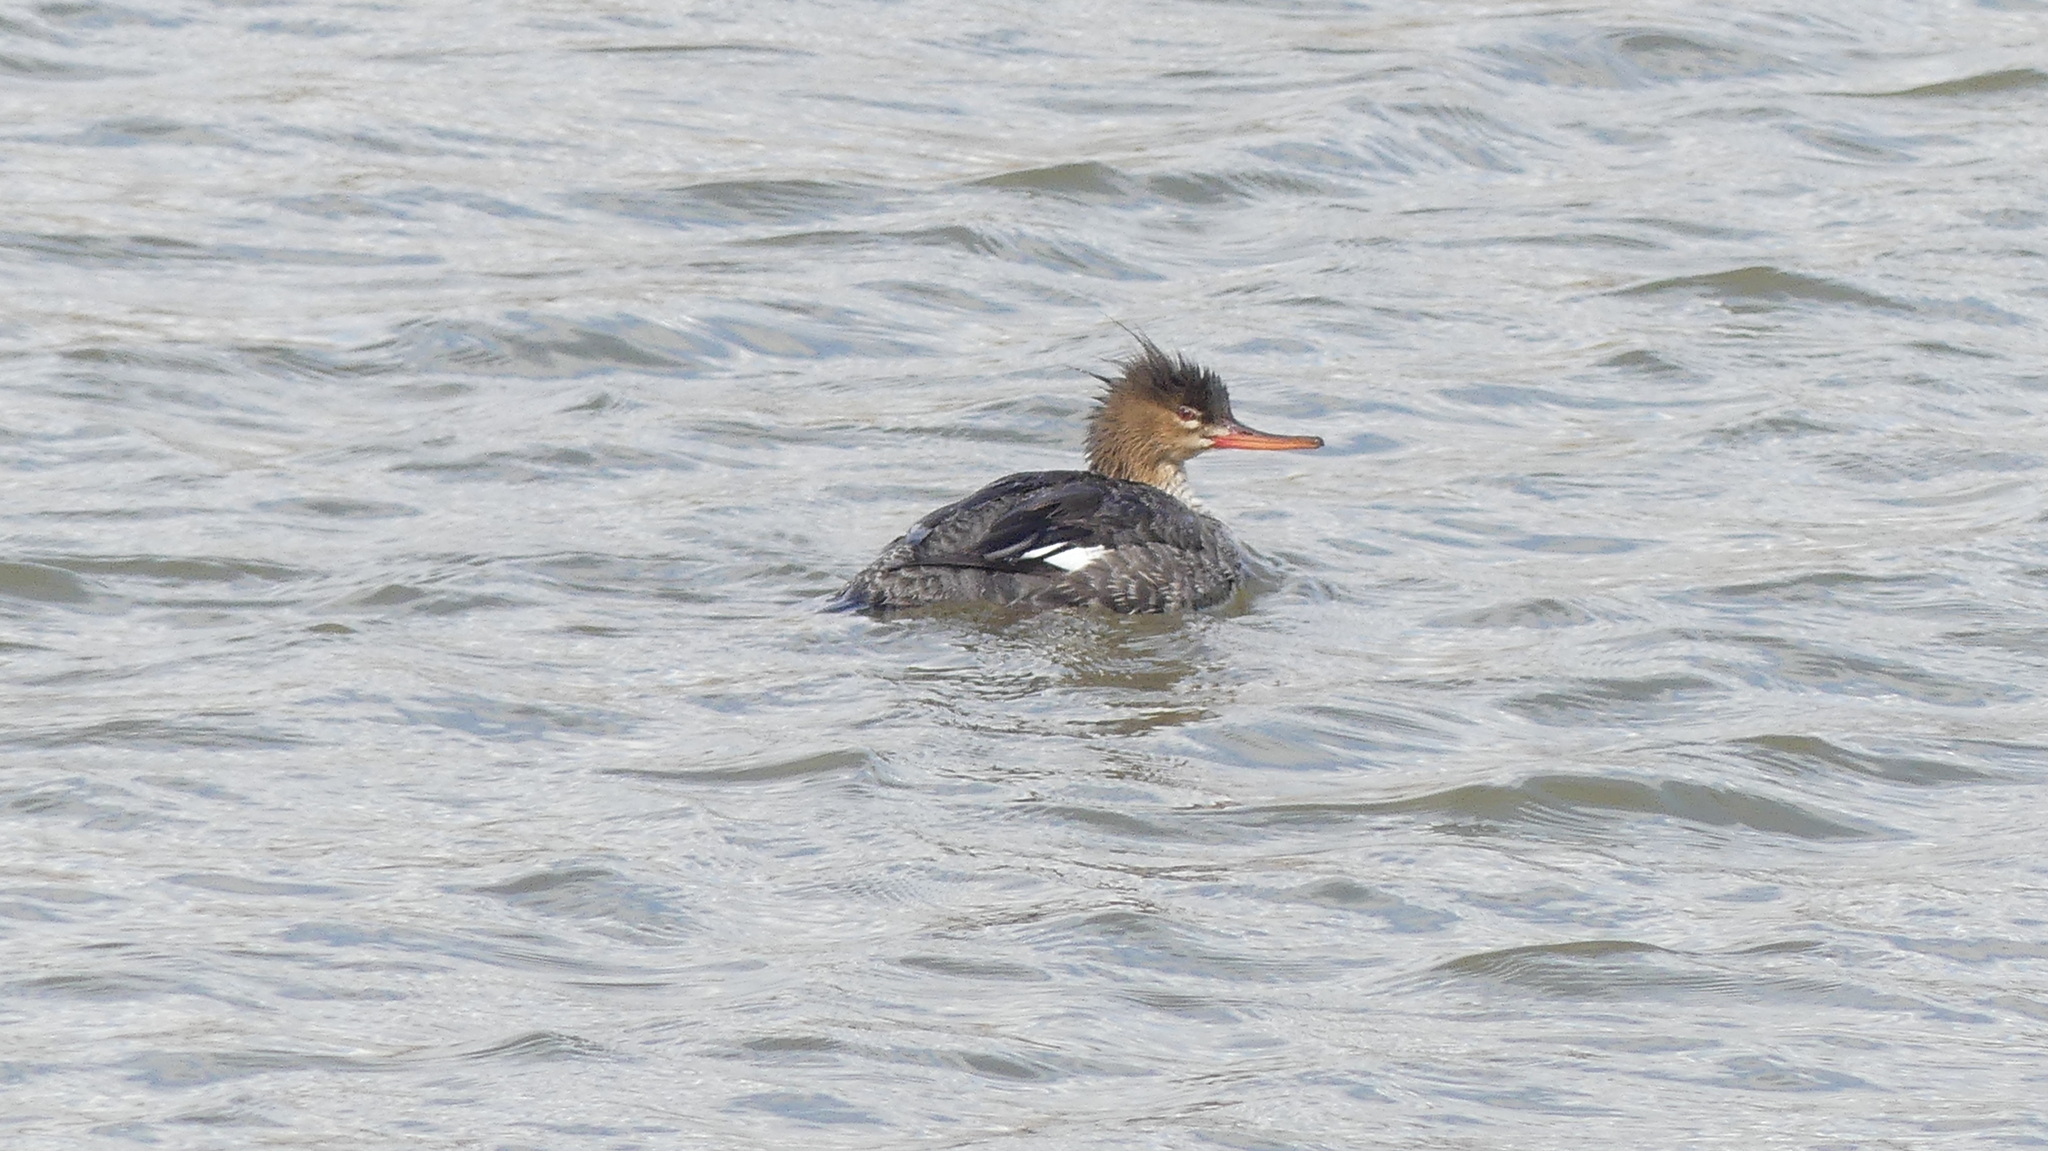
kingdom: Animalia
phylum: Chordata
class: Aves
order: Anseriformes
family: Anatidae
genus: Mergus
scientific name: Mergus serrator
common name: Red-breasted merganser
